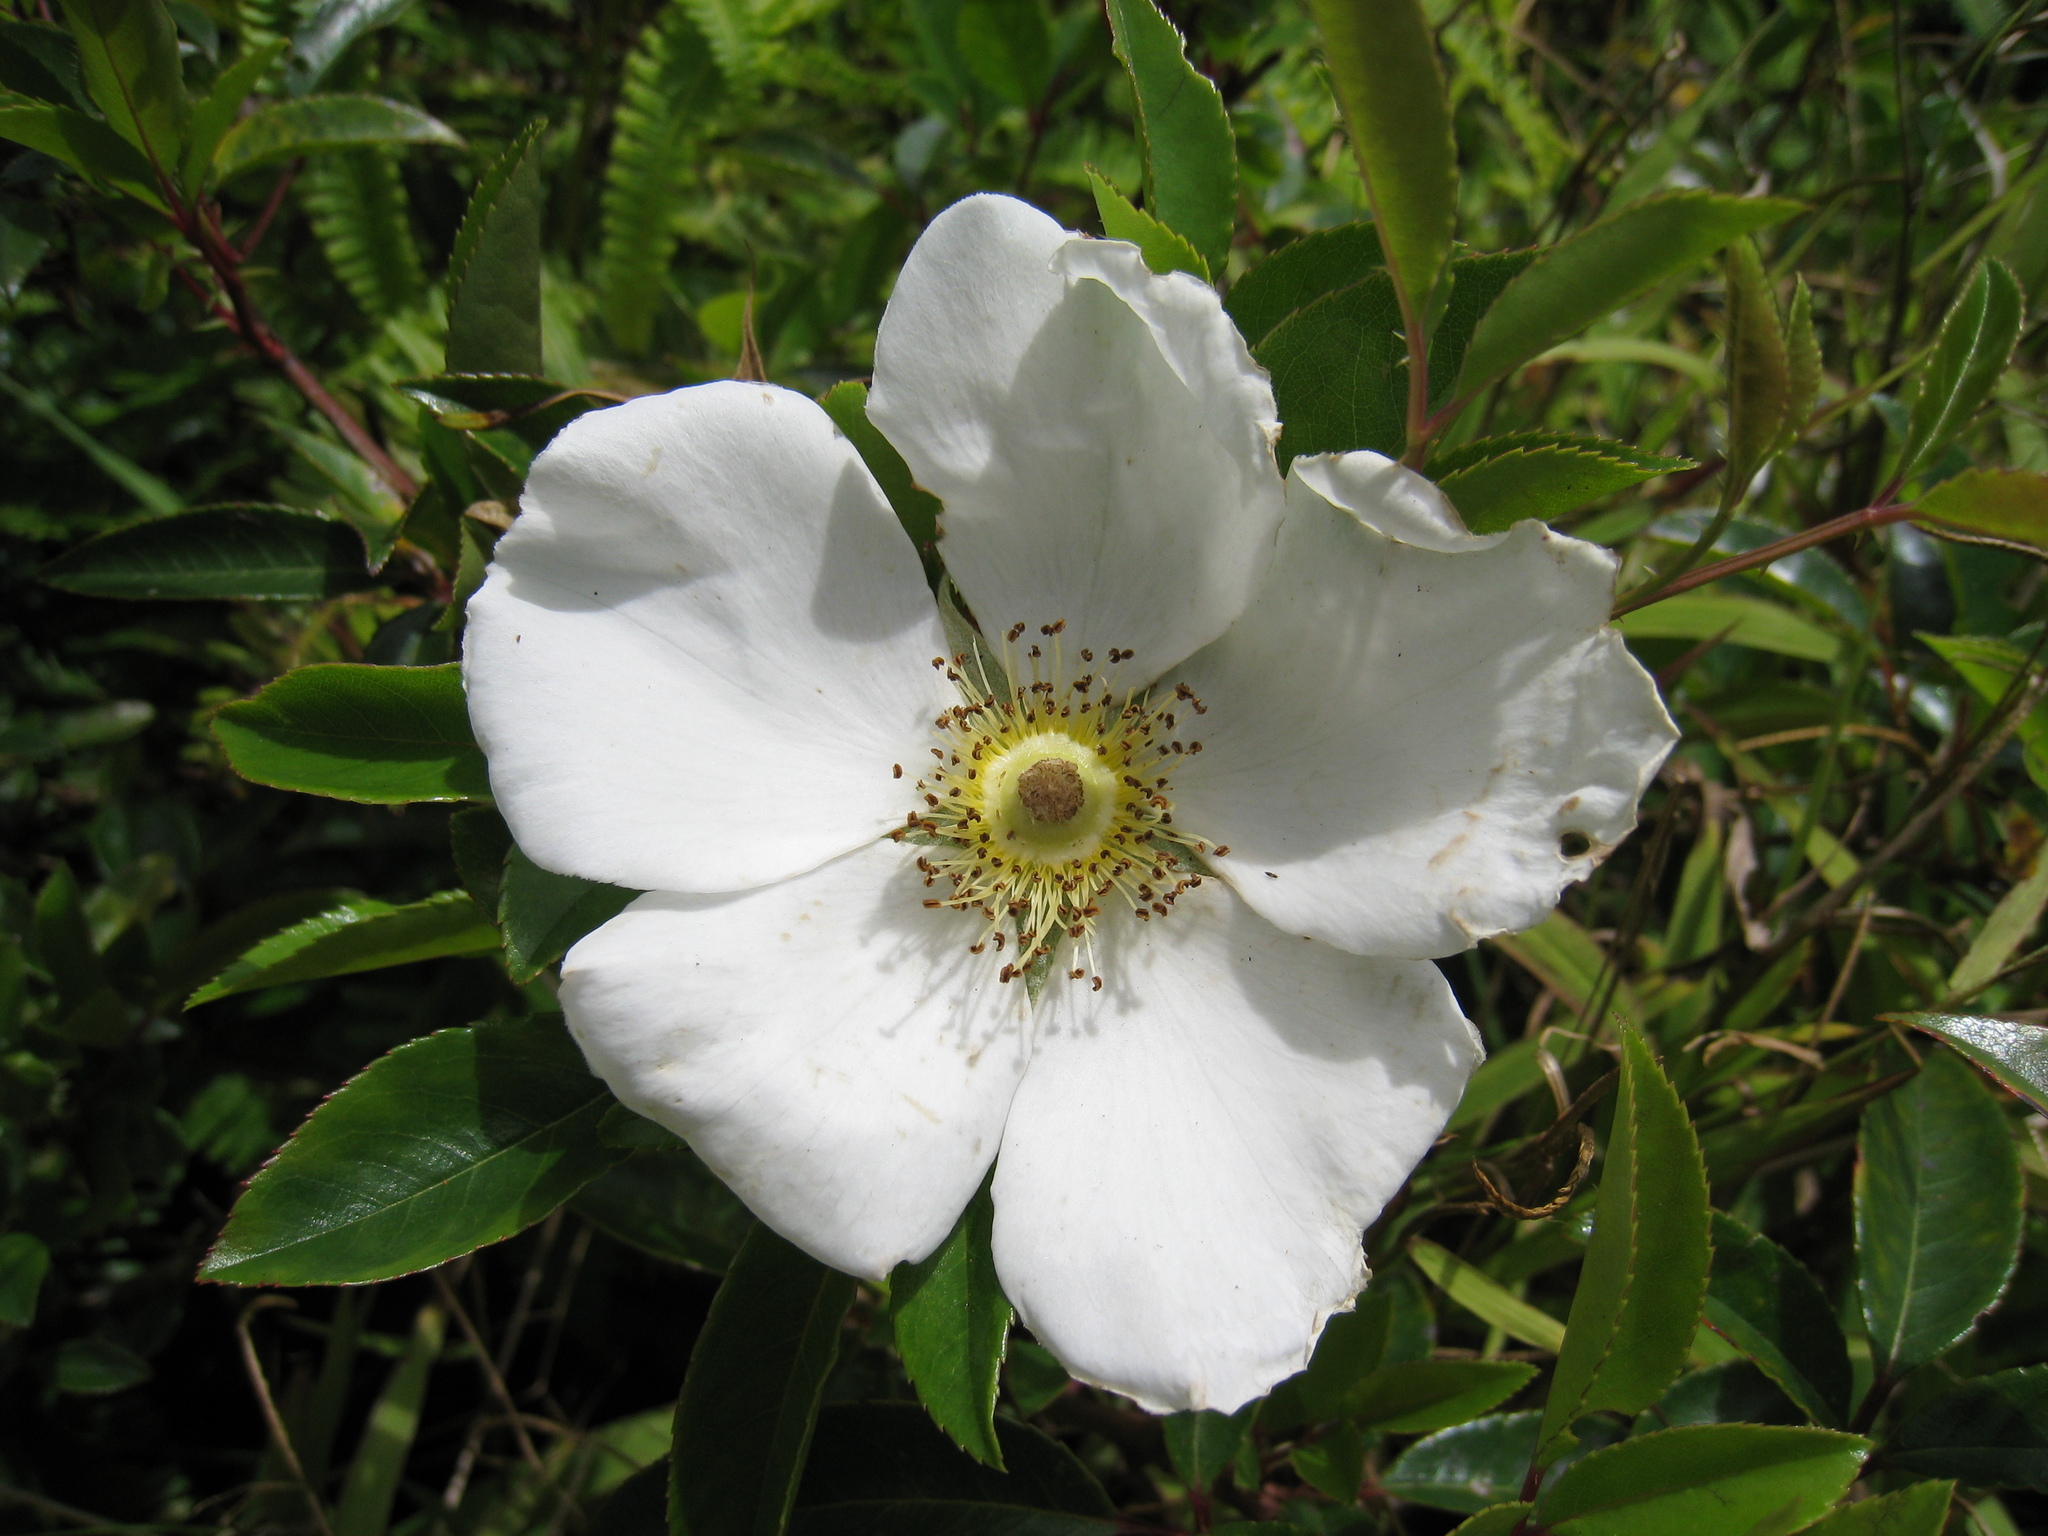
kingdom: Plantae
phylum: Tracheophyta
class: Magnoliopsida
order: Rosales
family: Rosaceae
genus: Rosa
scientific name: Rosa laevigata
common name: Cherokee rose
